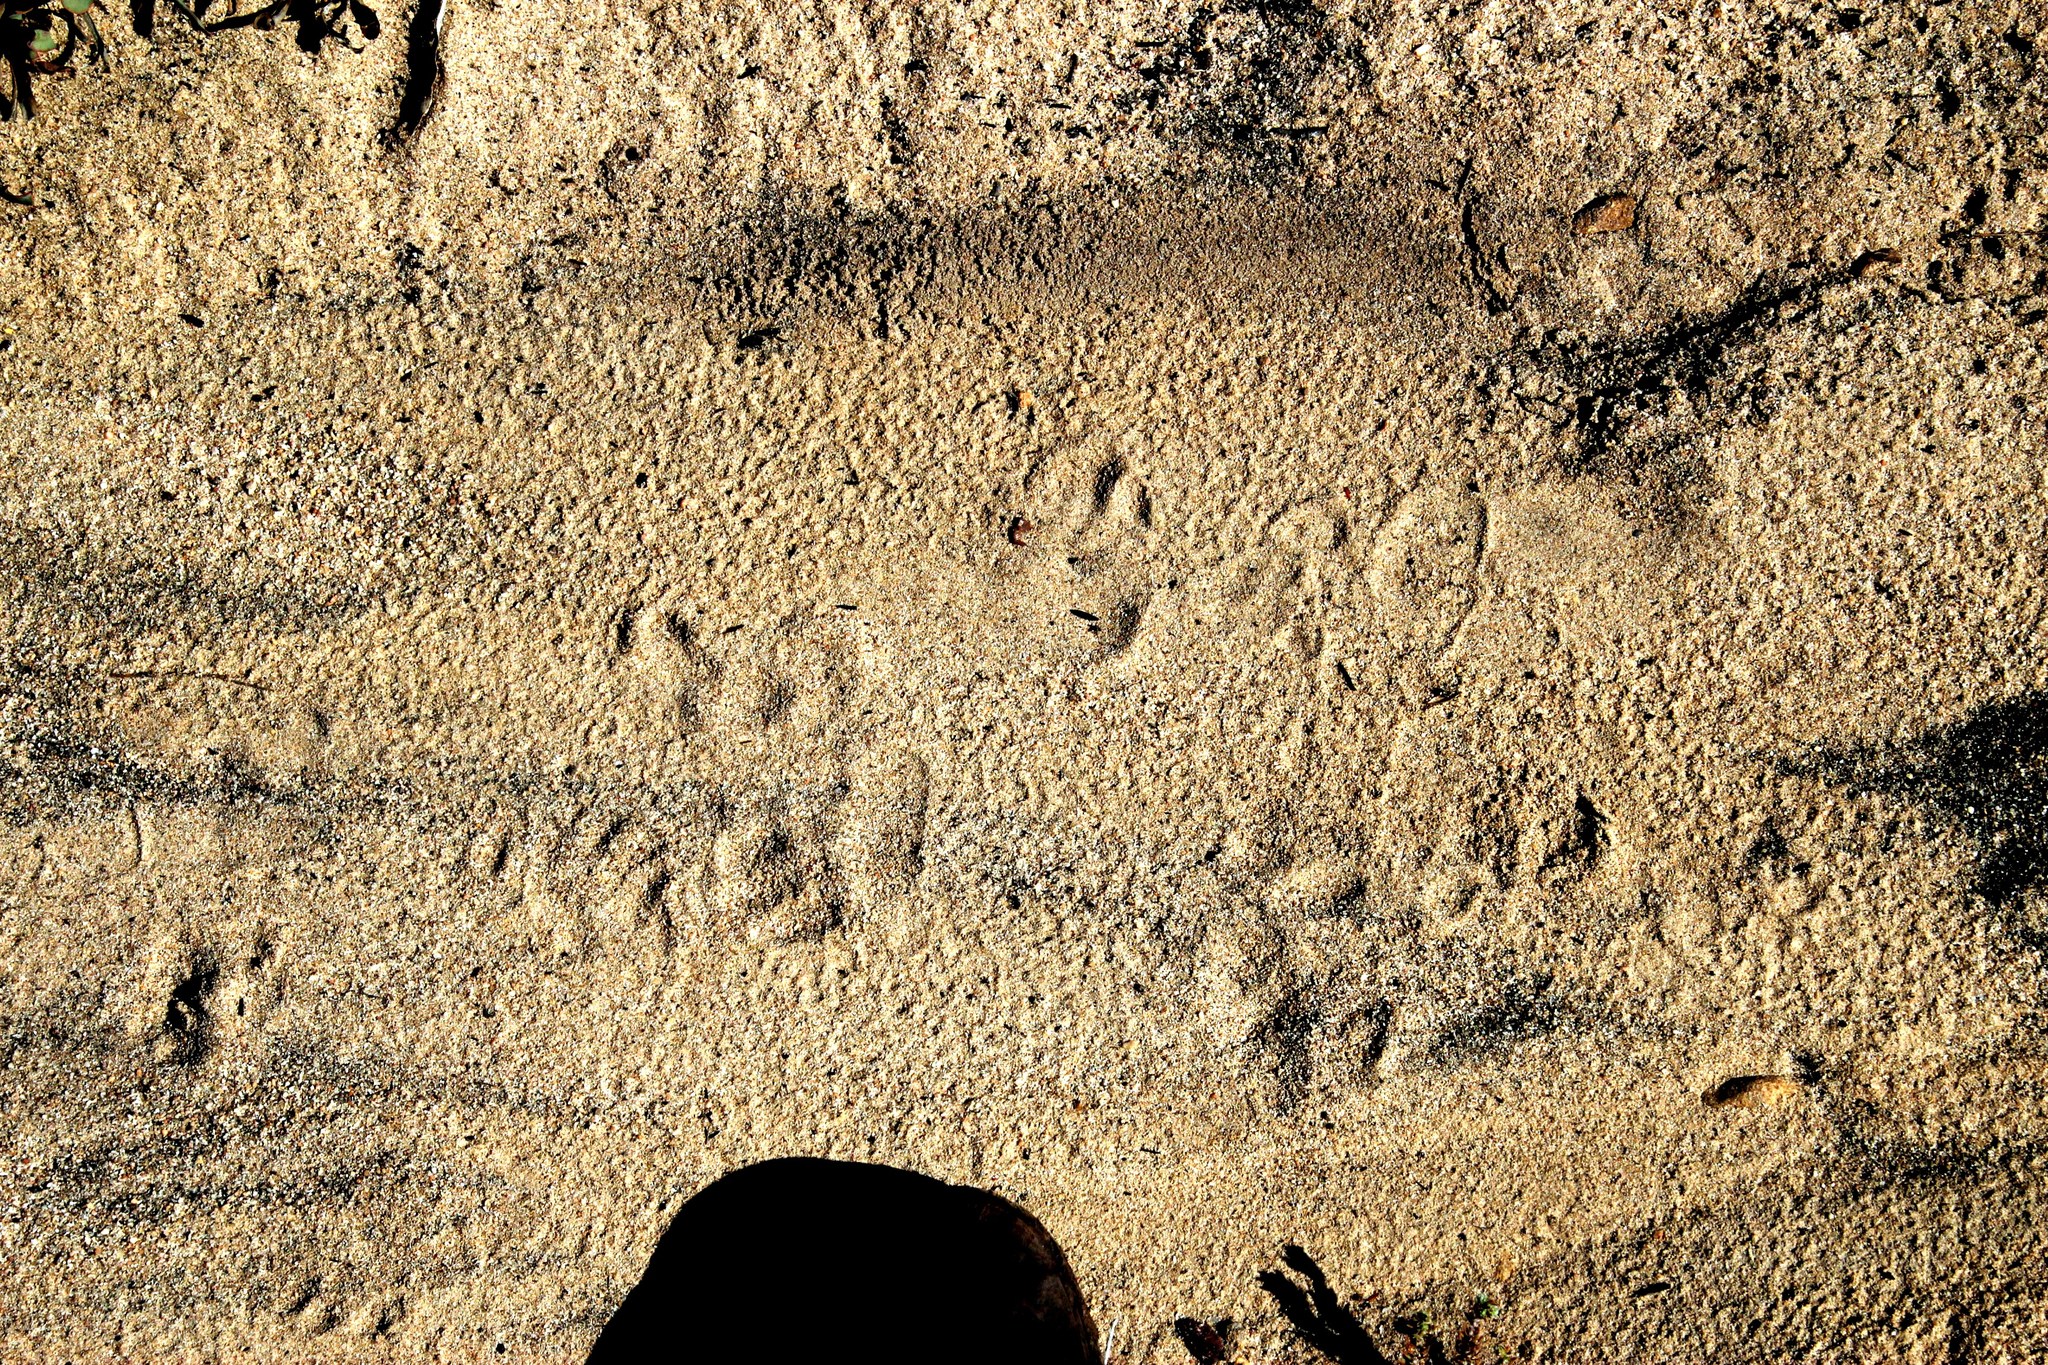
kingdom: Animalia
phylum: Chordata
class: Mammalia
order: Primates
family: Cercopithecidae
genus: Papio
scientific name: Papio ursinus
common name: Chacma baboon
